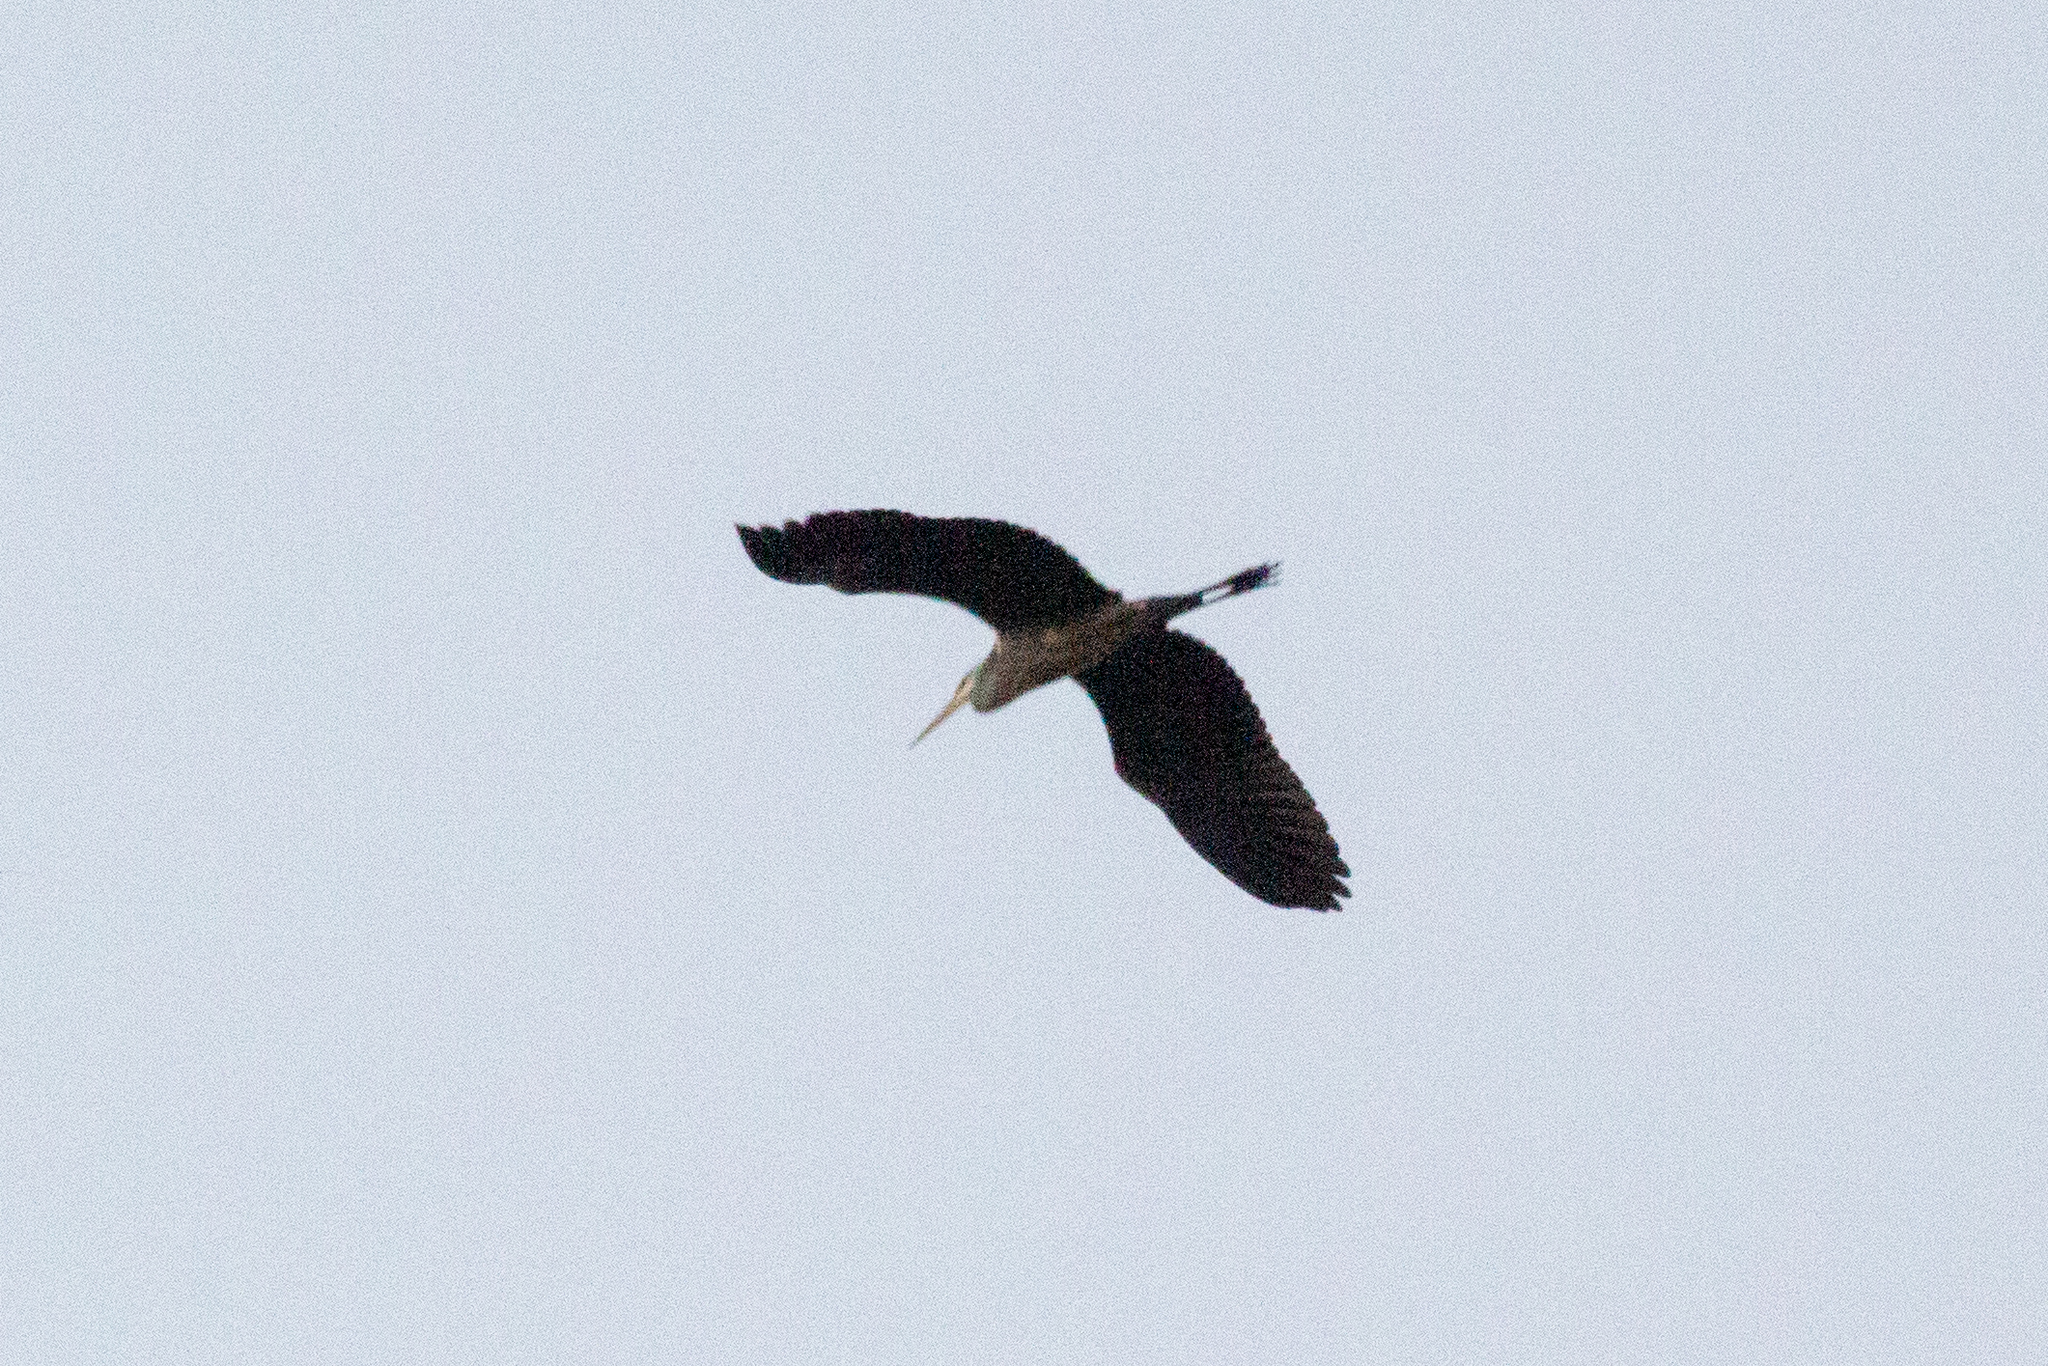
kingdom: Animalia
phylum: Chordata
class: Aves
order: Pelecaniformes
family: Ardeidae
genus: Ardea
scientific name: Ardea cinerea
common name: Grey heron
